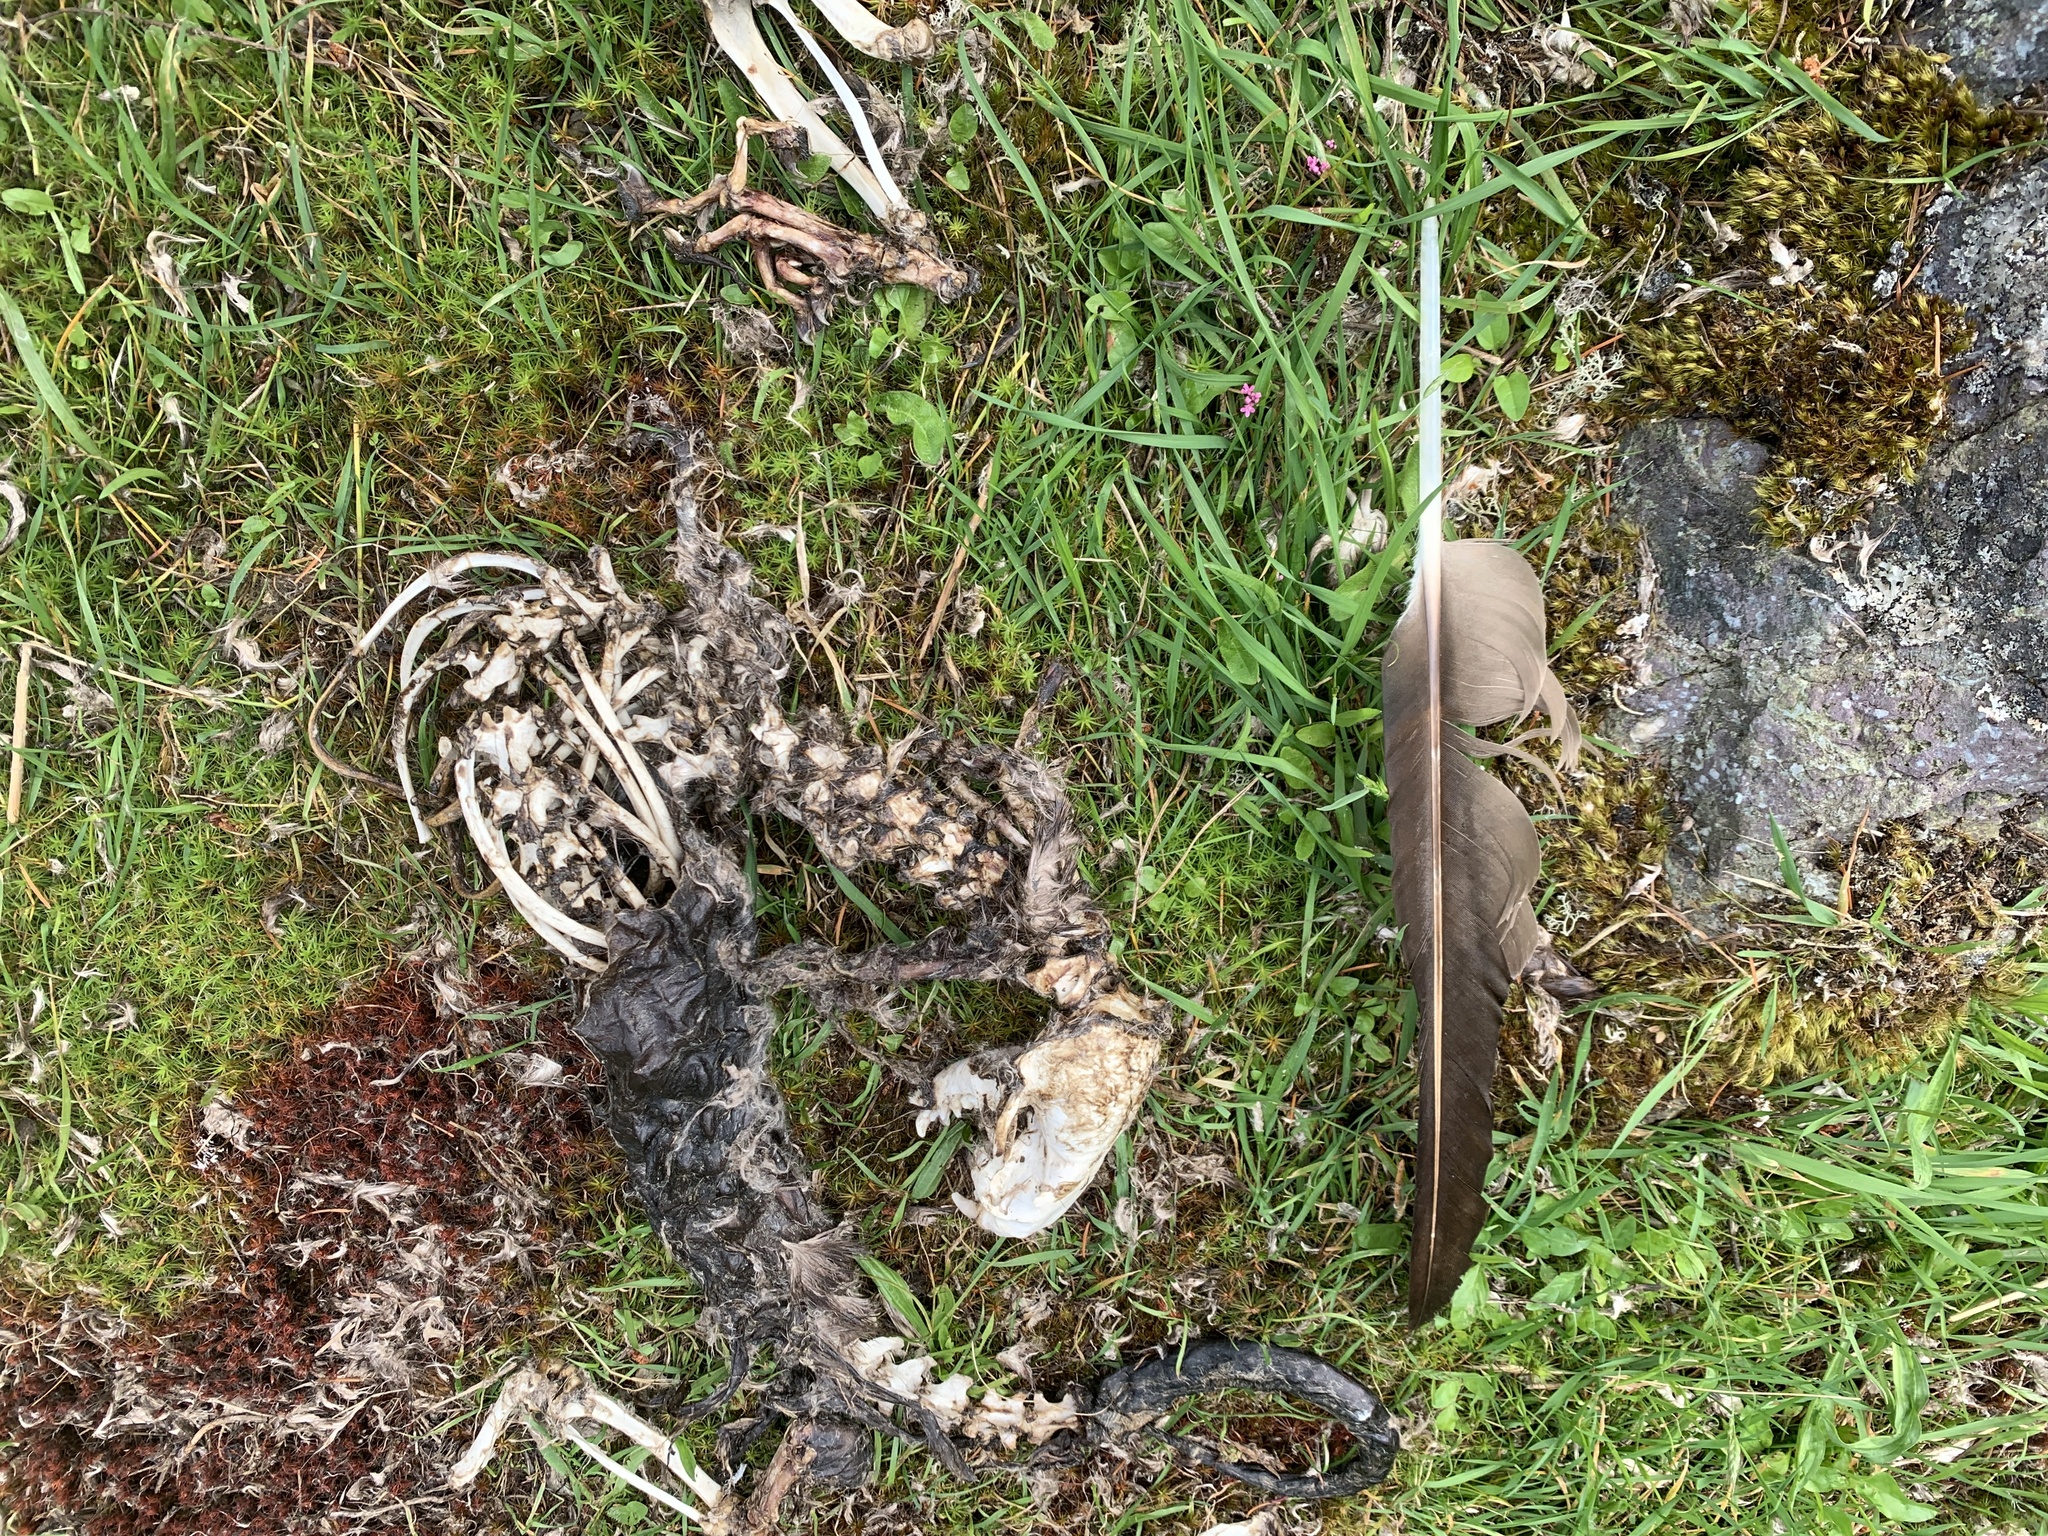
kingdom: Animalia
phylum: Chordata
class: Mammalia
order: Carnivora
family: Mustelidae
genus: Lontra
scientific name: Lontra canadensis
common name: North american river otter
